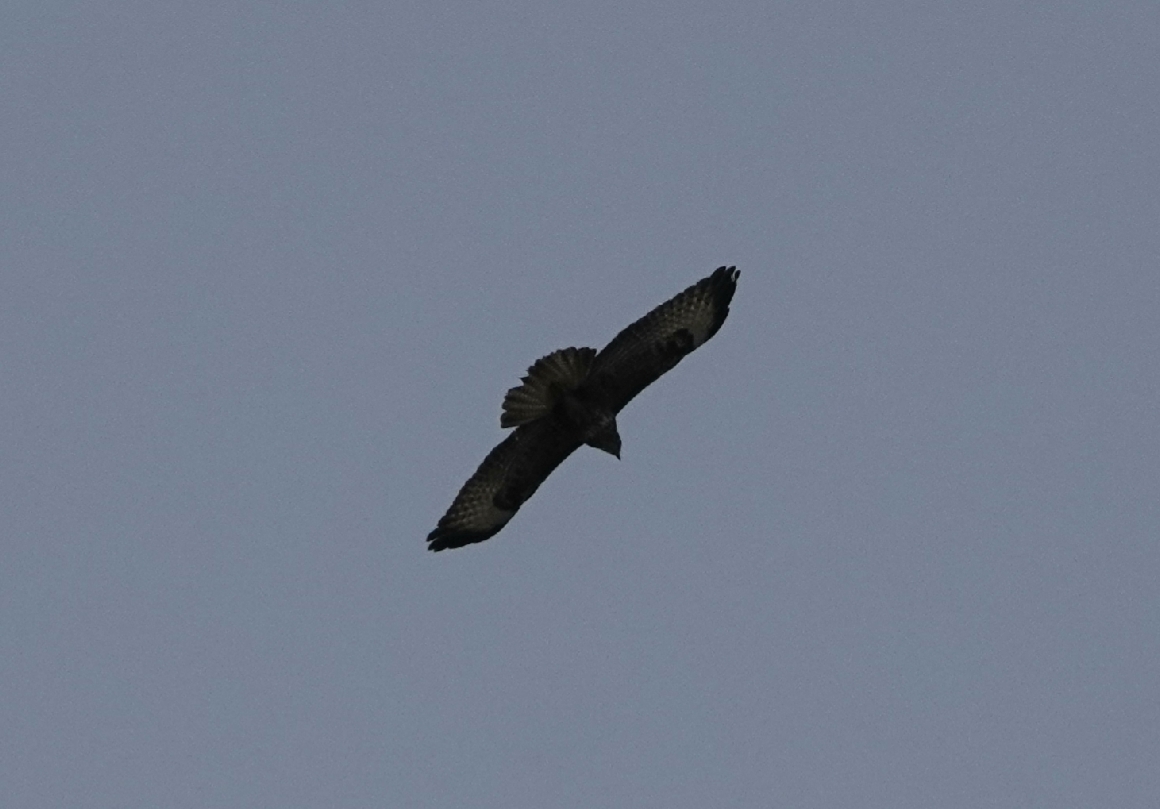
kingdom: Animalia
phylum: Chordata
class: Aves
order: Accipitriformes
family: Accipitridae
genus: Buteo
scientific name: Buteo buteo
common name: Common buzzard
